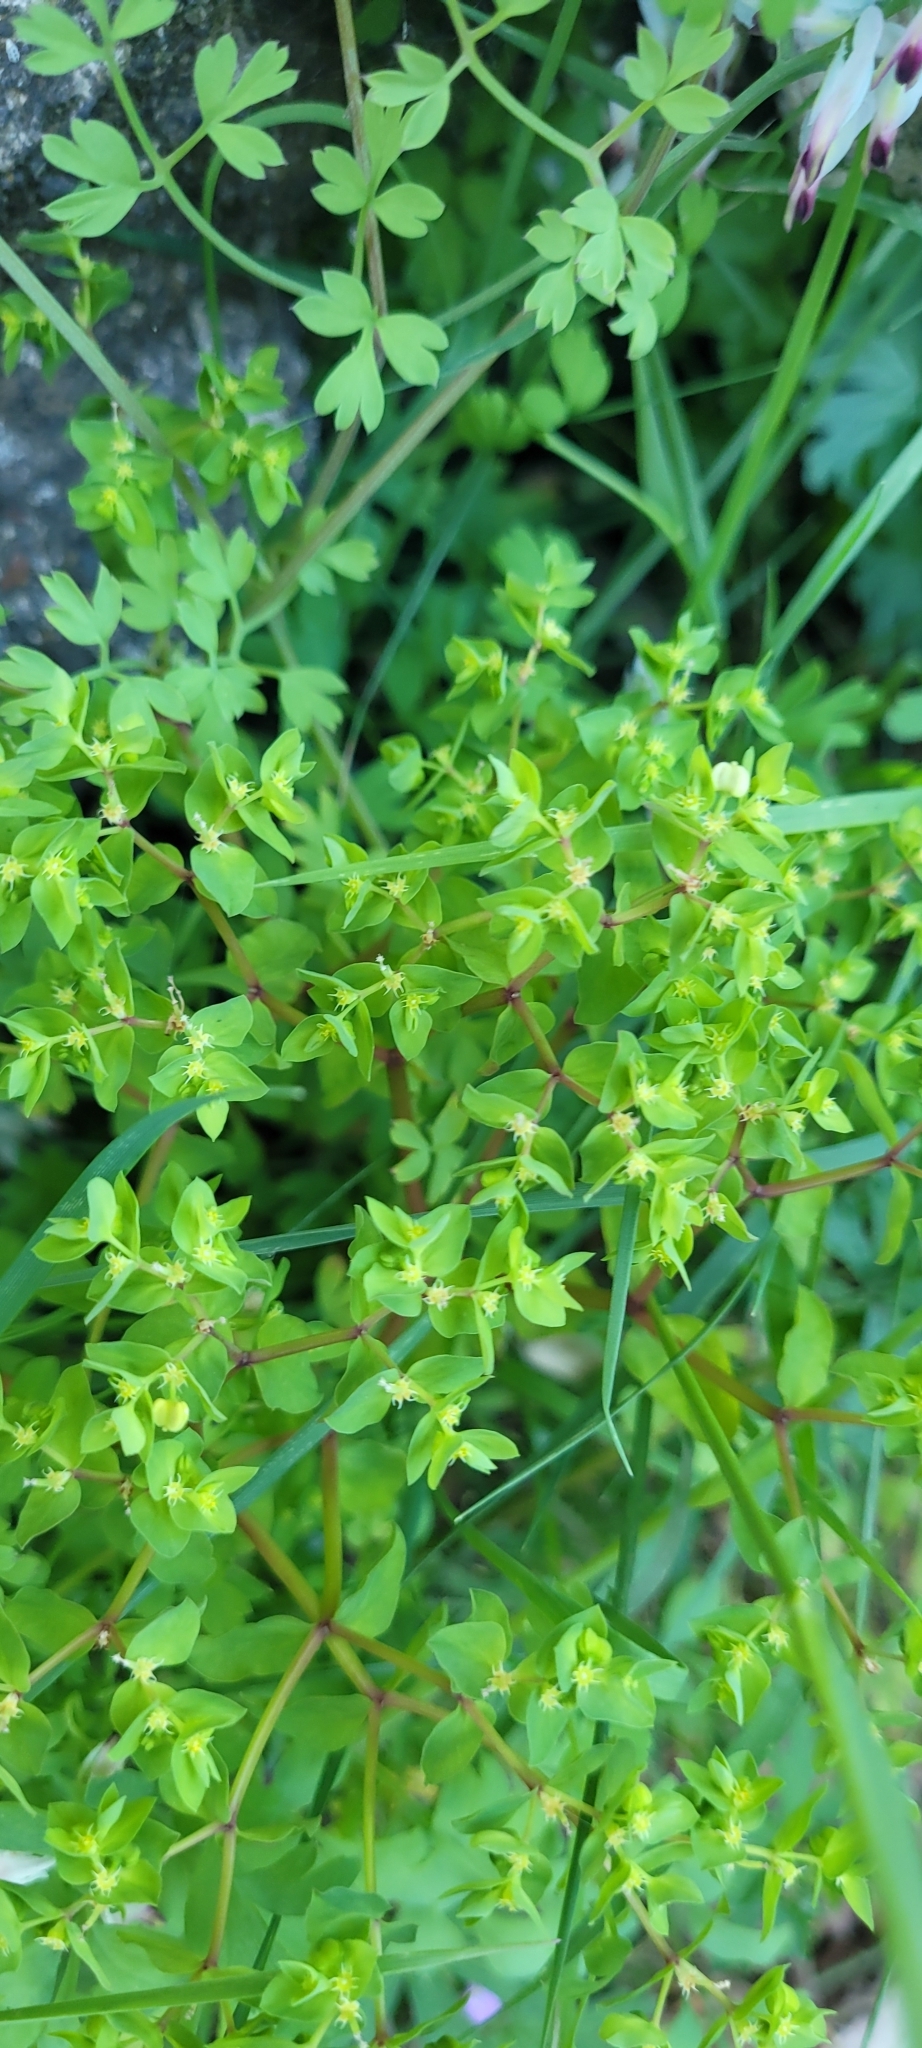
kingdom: Plantae
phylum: Tracheophyta
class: Magnoliopsida
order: Malpighiales
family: Euphorbiaceae
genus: Euphorbia
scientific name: Euphorbia peplus
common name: Petty spurge
